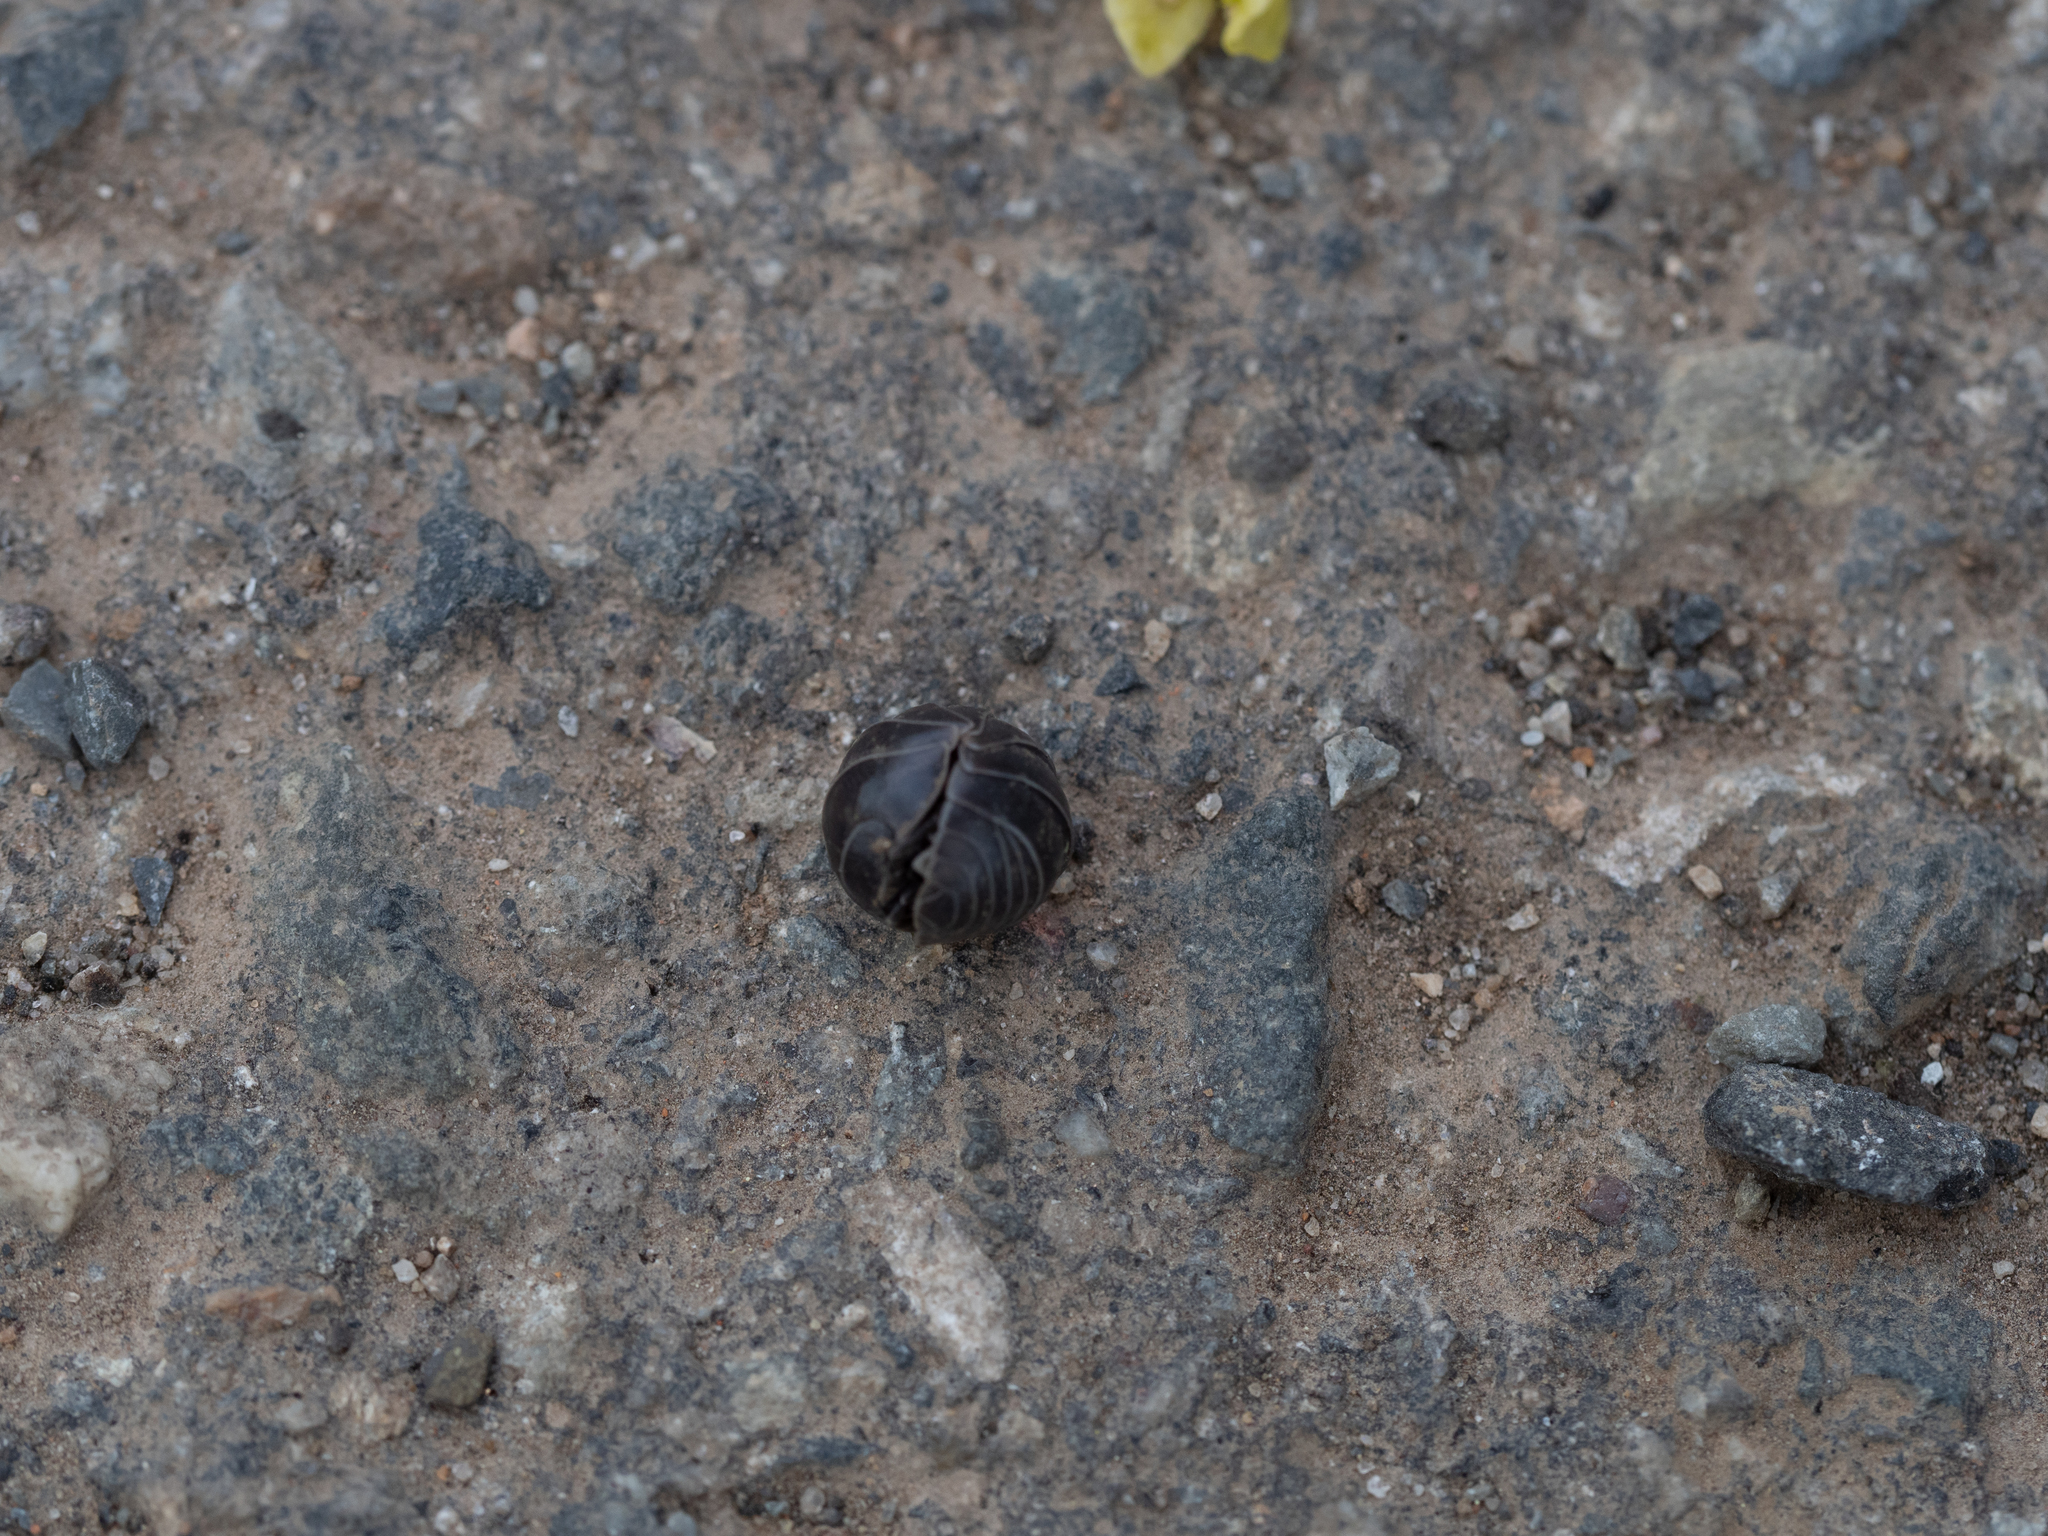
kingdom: Animalia
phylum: Arthropoda
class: Malacostraca
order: Isopoda
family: Armadillidiidae
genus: Armadillidium
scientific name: Armadillidium vulgare
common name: Common pill woodlouse
